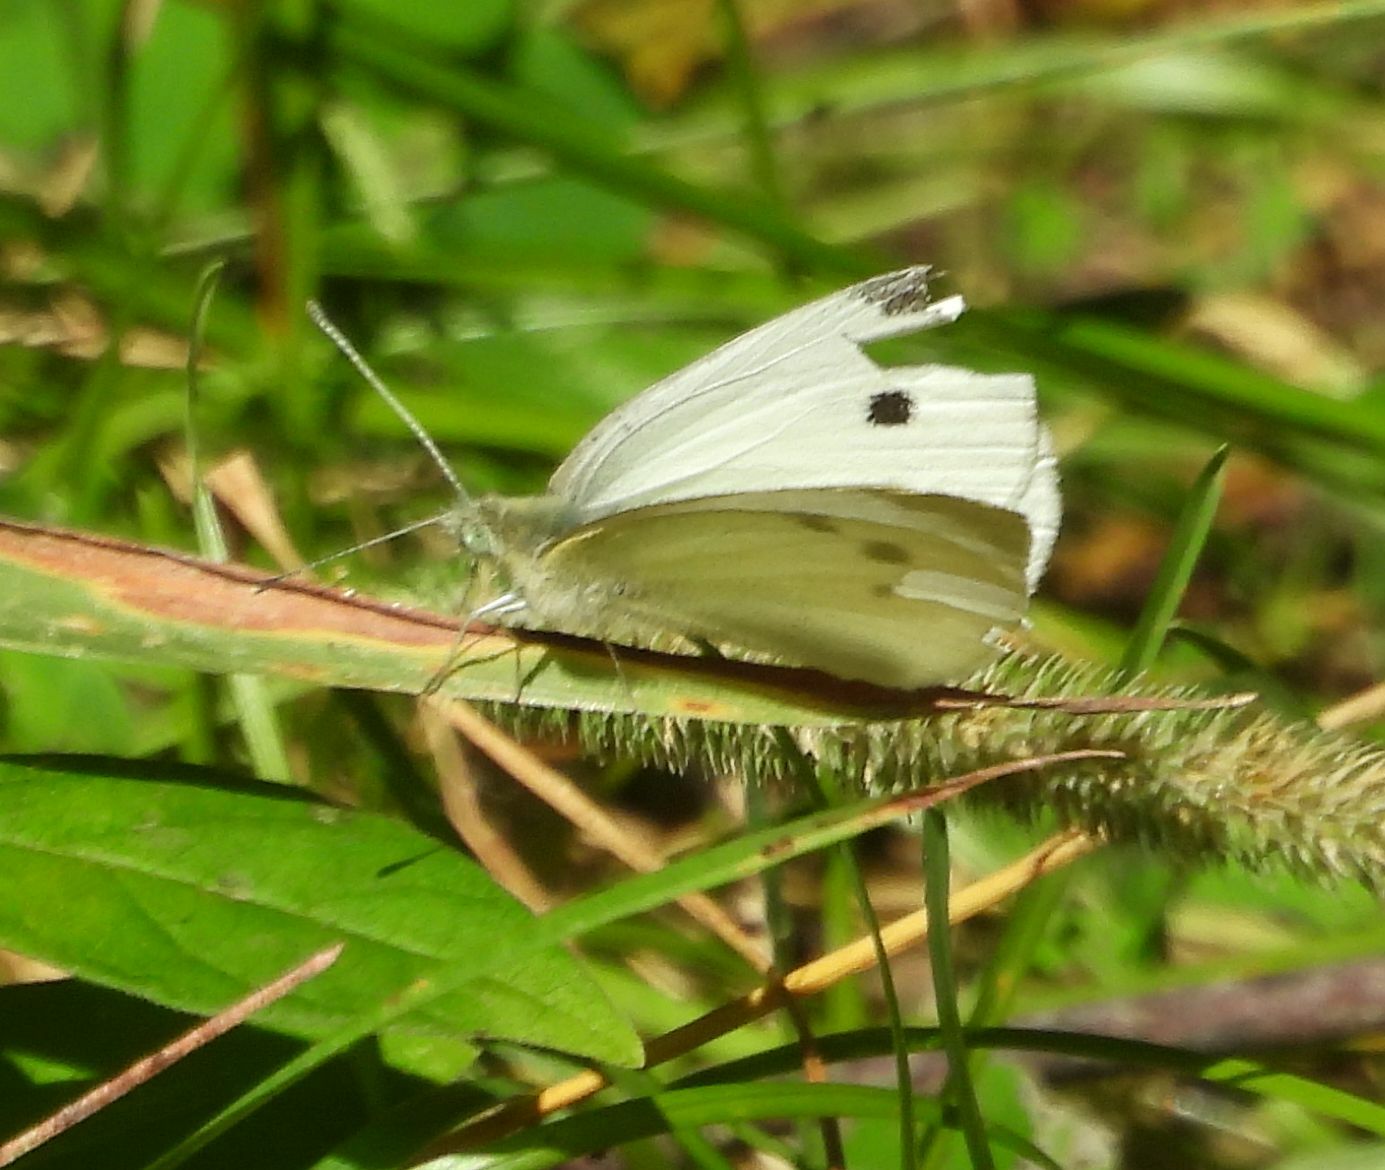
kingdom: Animalia
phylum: Arthropoda
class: Insecta
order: Lepidoptera
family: Pieridae
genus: Pieris
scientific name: Pieris rapae
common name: Small white
